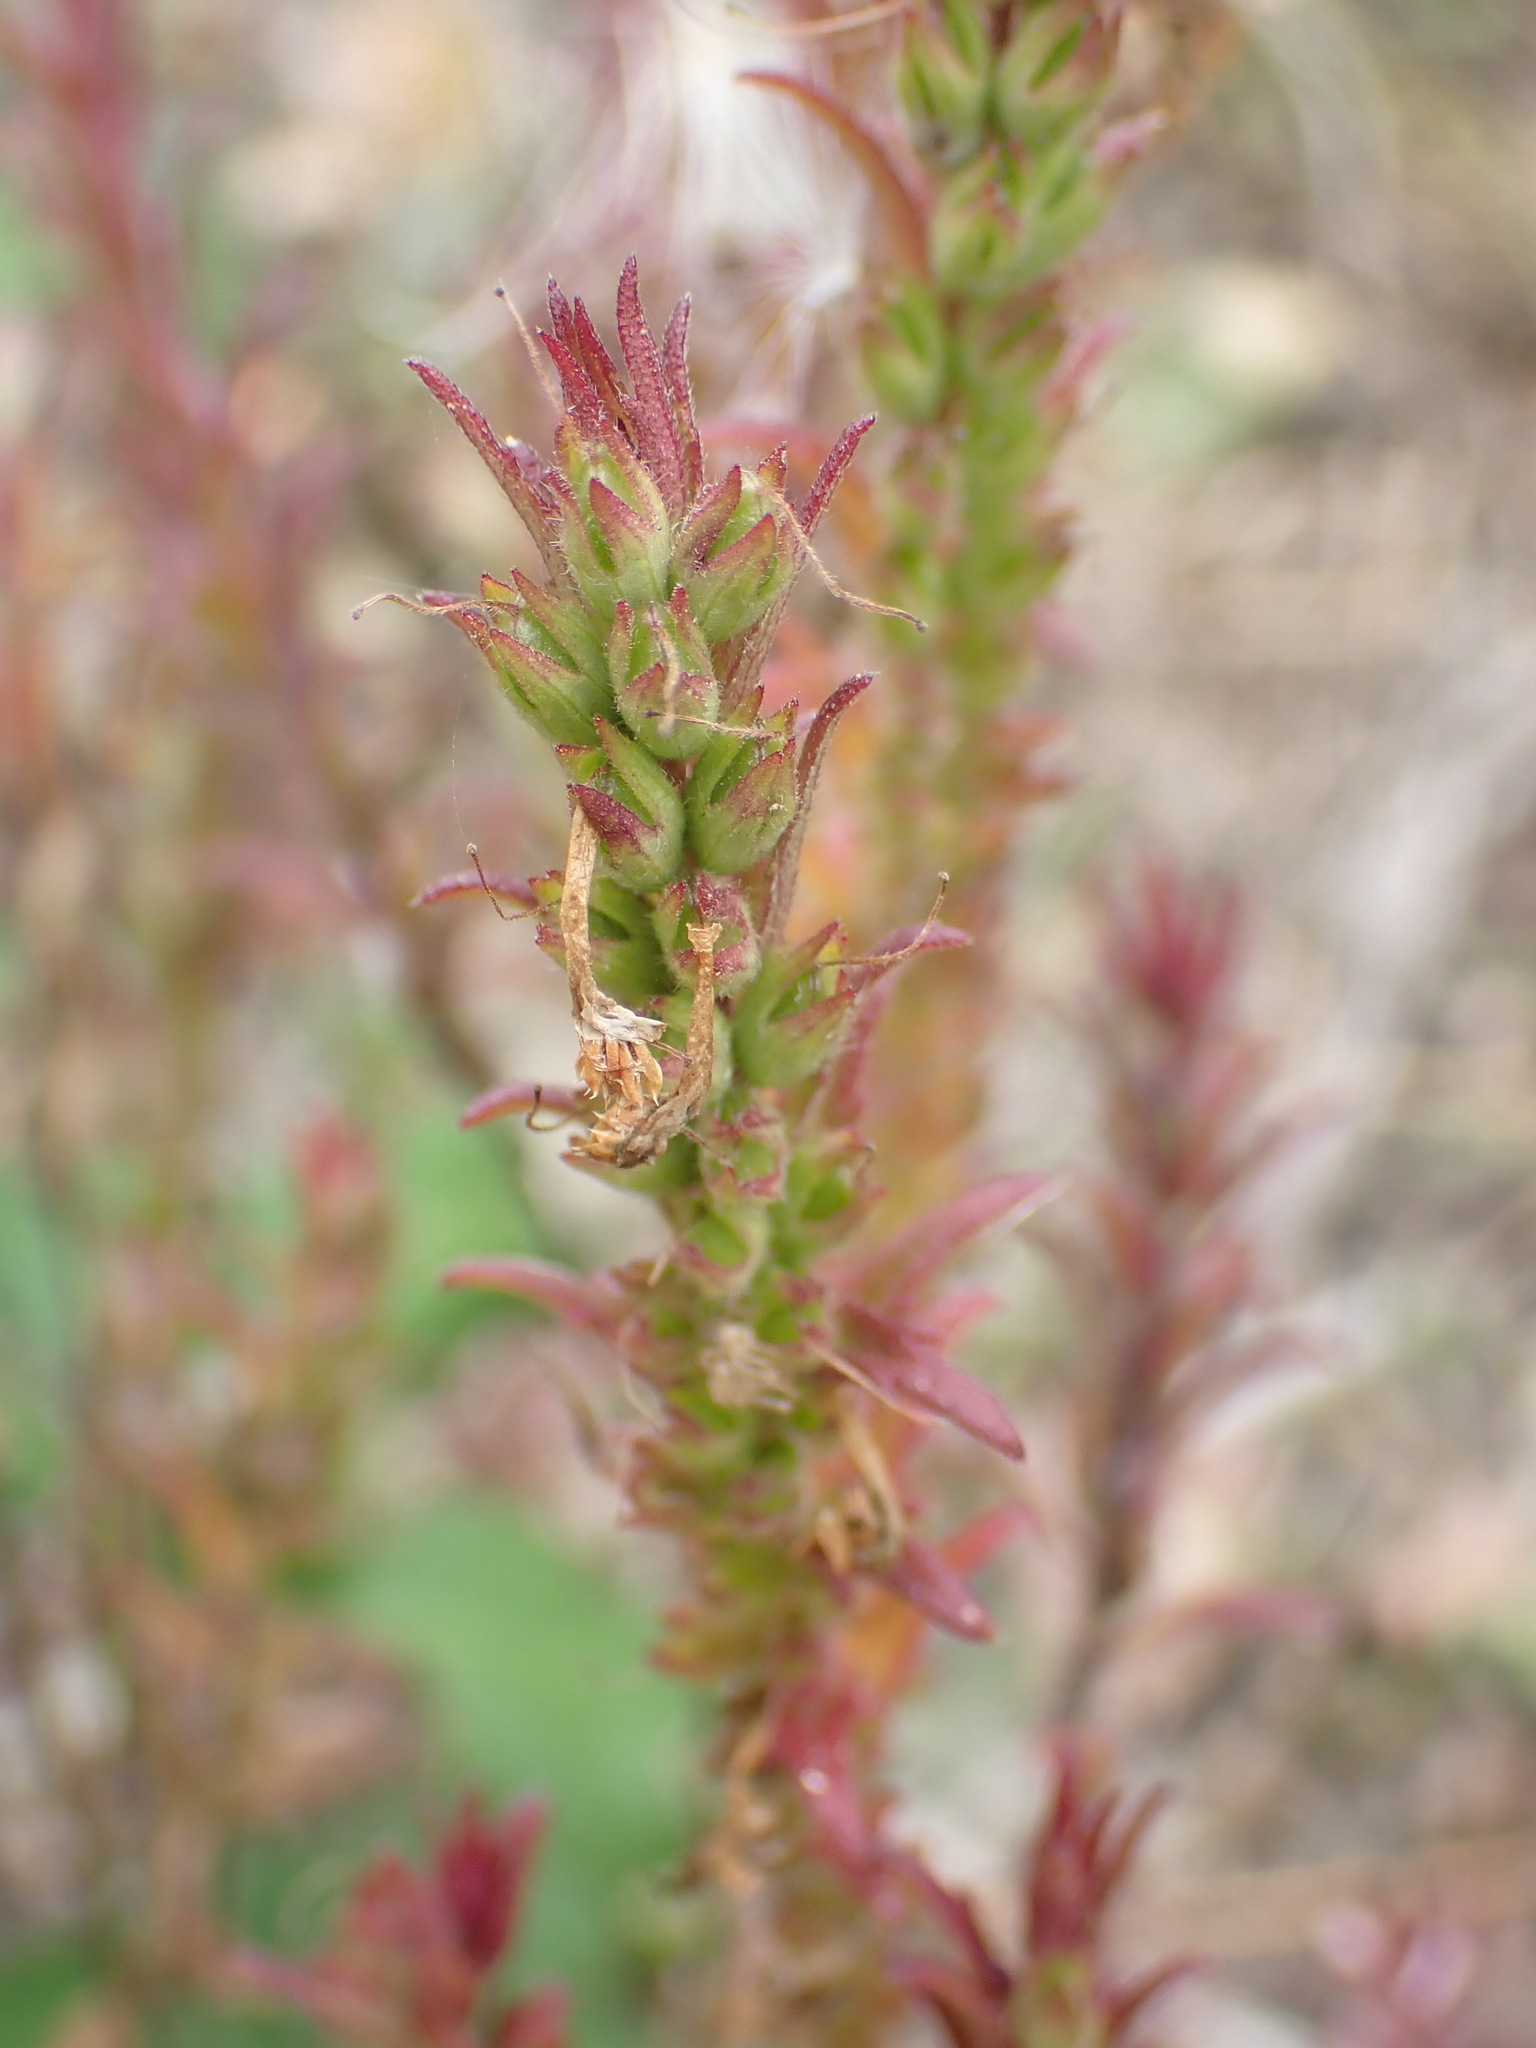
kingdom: Plantae
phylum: Tracheophyta
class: Magnoliopsida
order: Lamiales
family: Orobanchaceae
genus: Odontites
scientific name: Odontites vulgaris
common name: Broomrape
